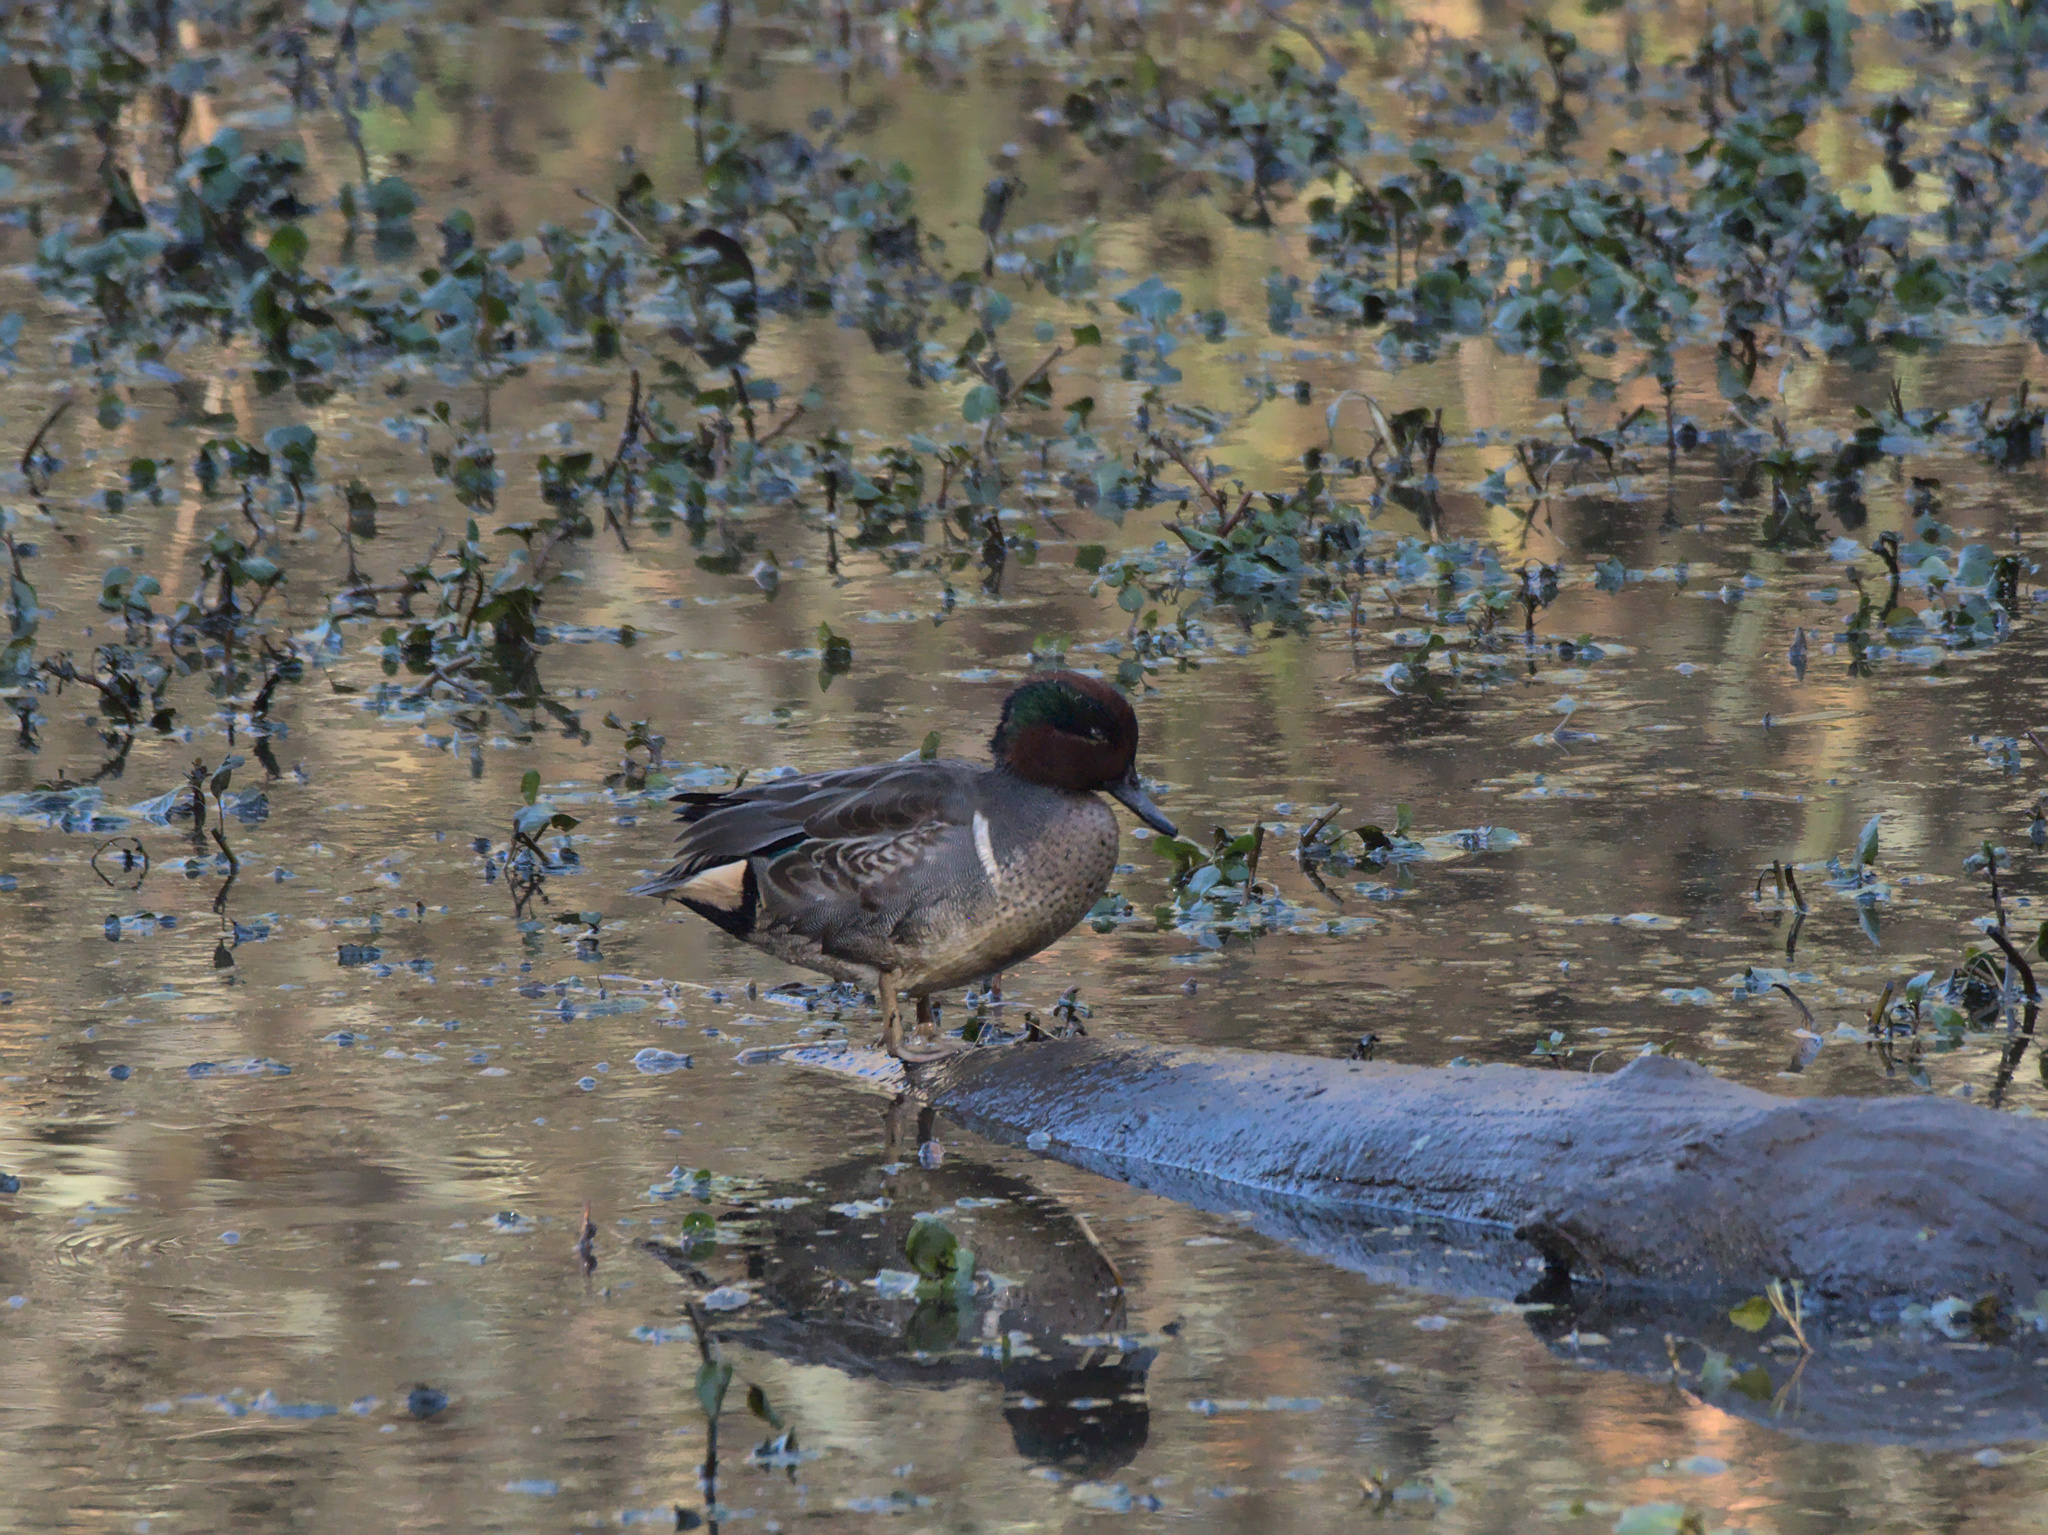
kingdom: Animalia
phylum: Chordata
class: Aves
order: Anseriformes
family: Anatidae
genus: Anas
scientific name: Anas crecca
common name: Eurasian teal
